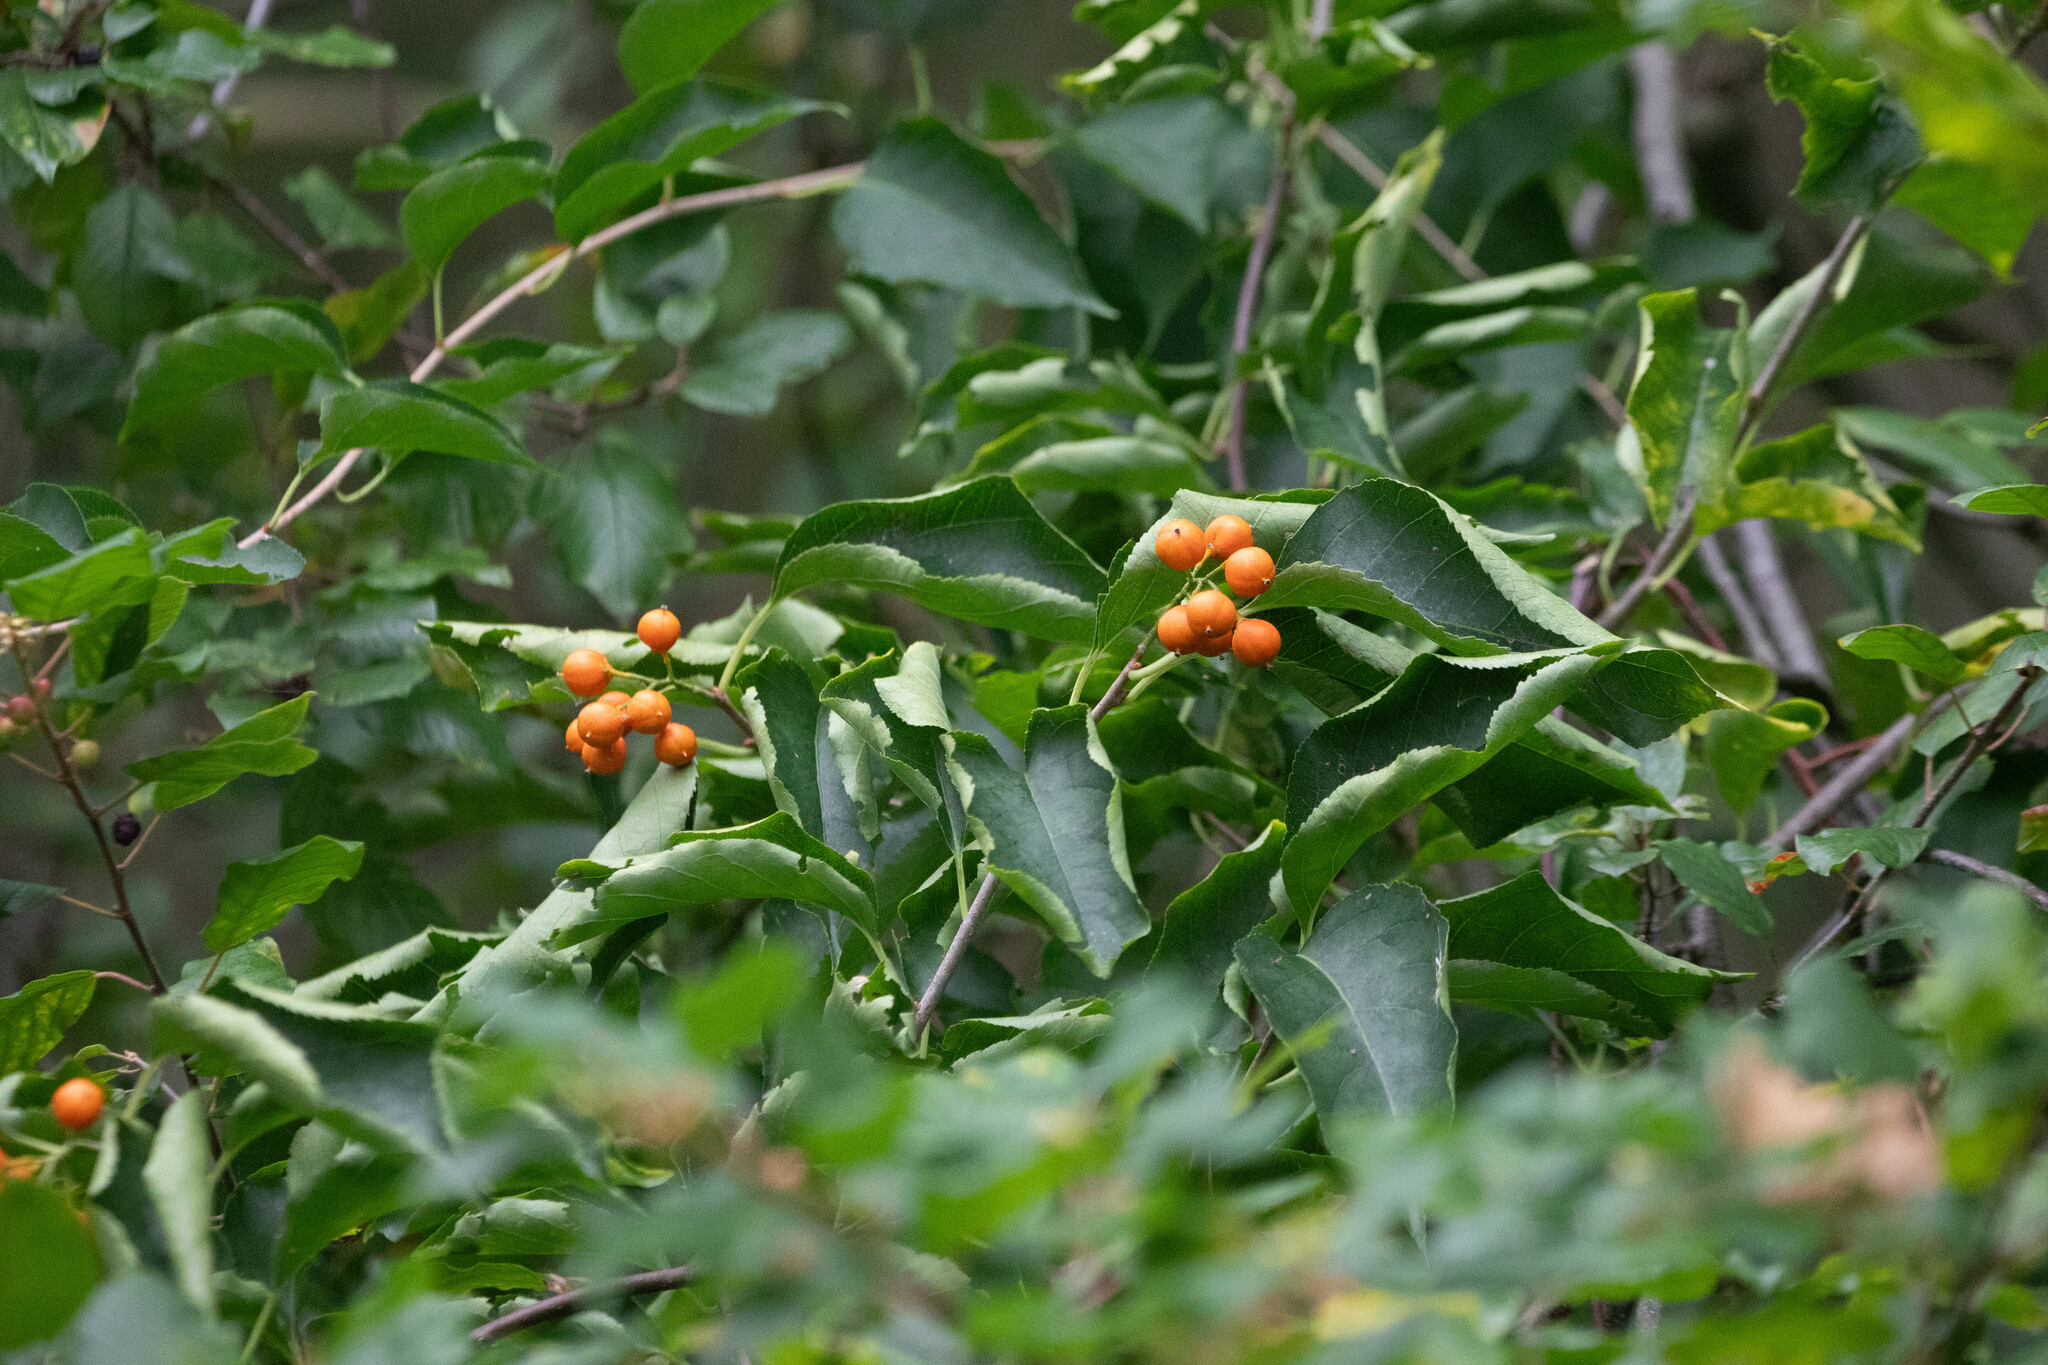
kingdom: Plantae
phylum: Tracheophyta
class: Magnoliopsida
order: Celastrales
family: Celastraceae
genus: Celastrus
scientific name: Celastrus scandens
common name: American bittersweet
